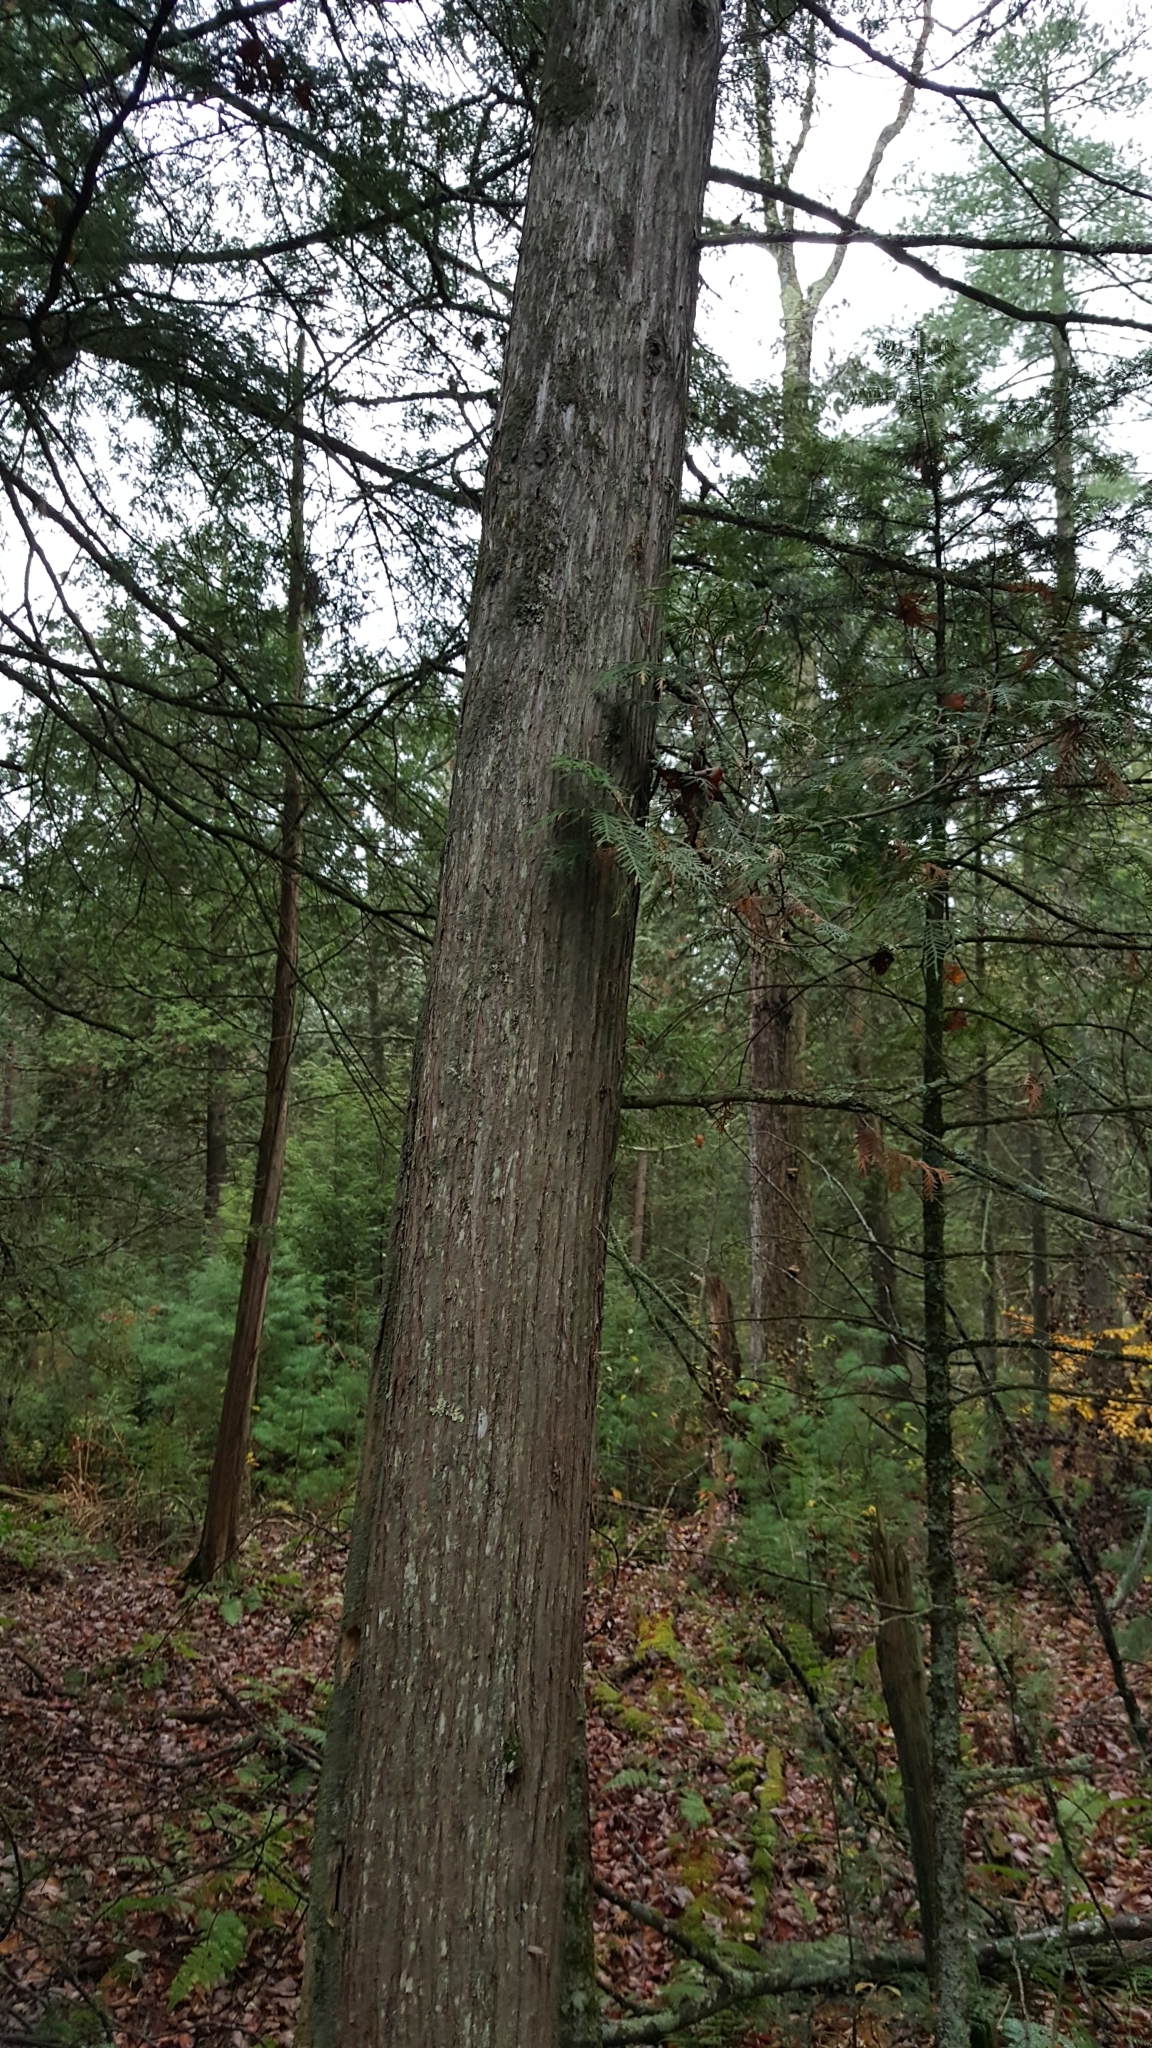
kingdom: Plantae
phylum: Tracheophyta
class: Pinopsida
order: Pinales
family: Cupressaceae
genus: Thuja
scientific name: Thuja occidentalis
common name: Northern white-cedar
